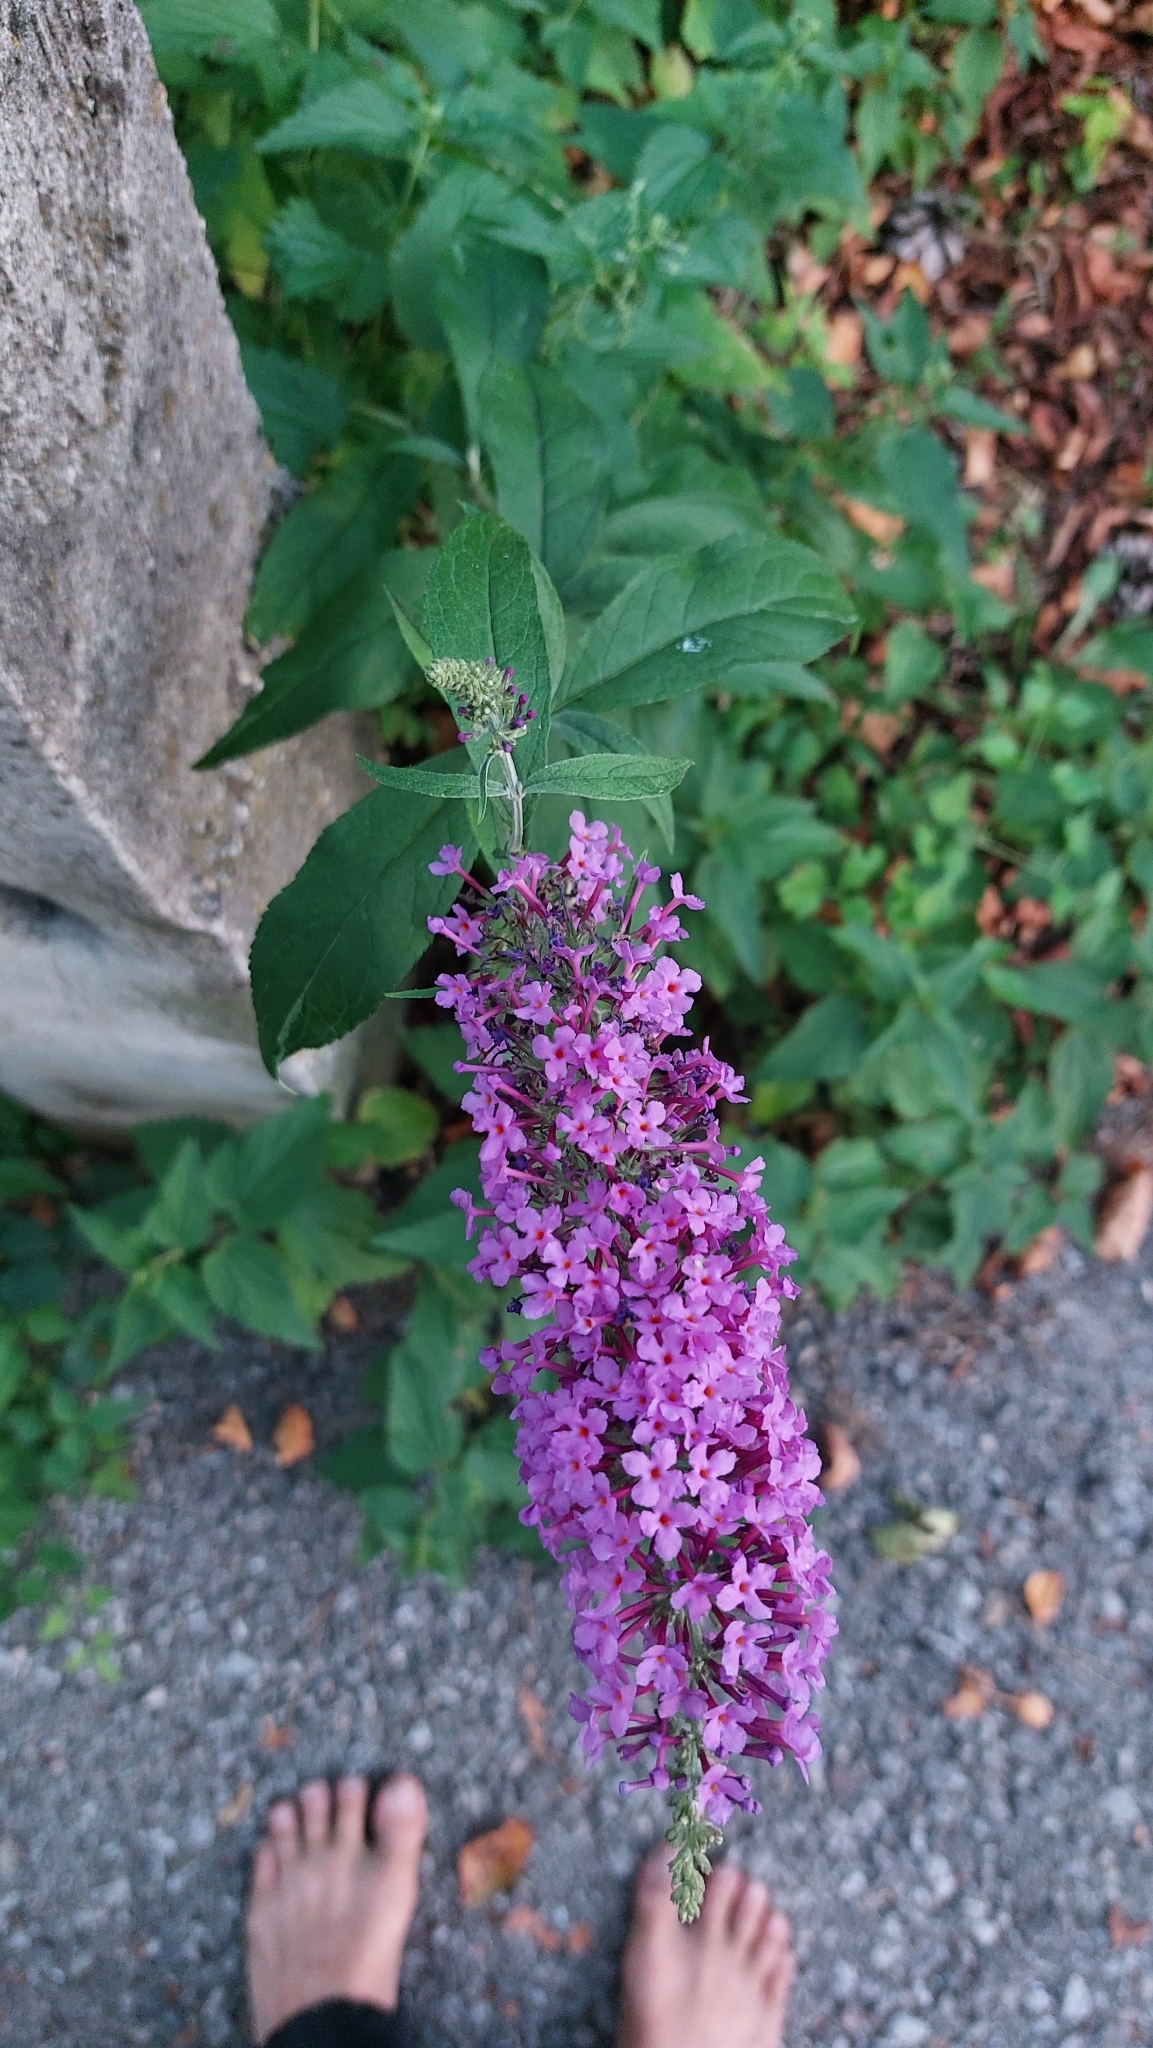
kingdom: Plantae
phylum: Tracheophyta
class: Magnoliopsida
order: Lamiales
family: Scrophulariaceae
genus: Buddleja
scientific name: Buddleja davidii
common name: Butterfly-bush
